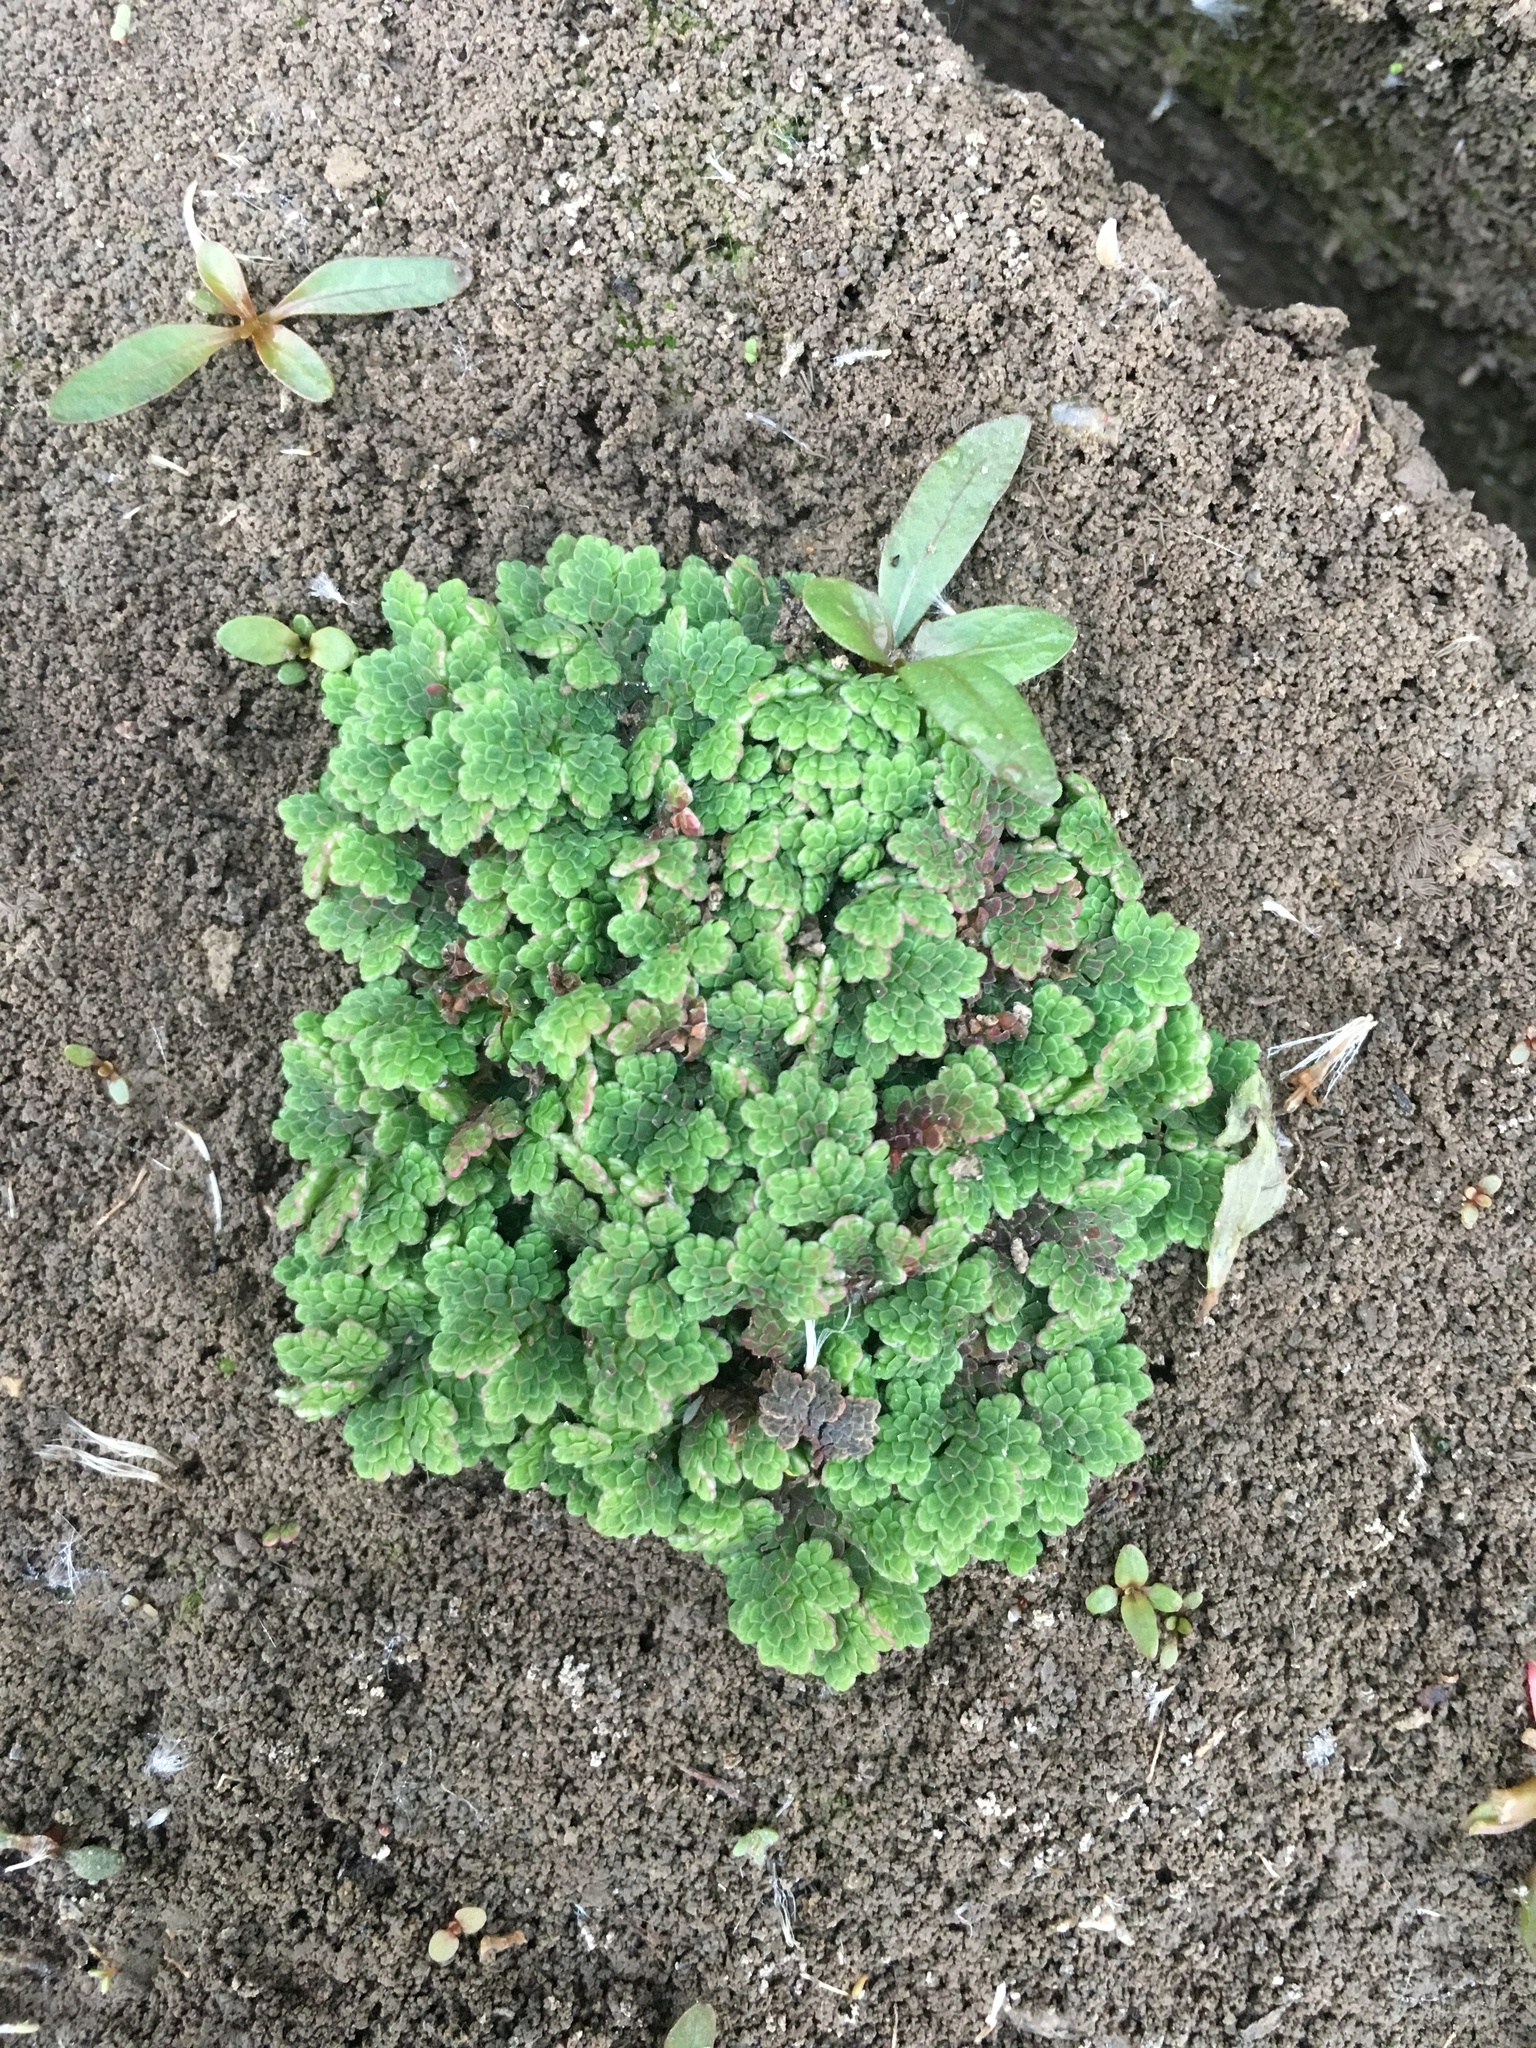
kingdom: Plantae
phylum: Tracheophyta
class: Polypodiopsida
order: Salviniales
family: Salviniaceae
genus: Azolla
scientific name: Azolla filiculoides
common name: Water fern
